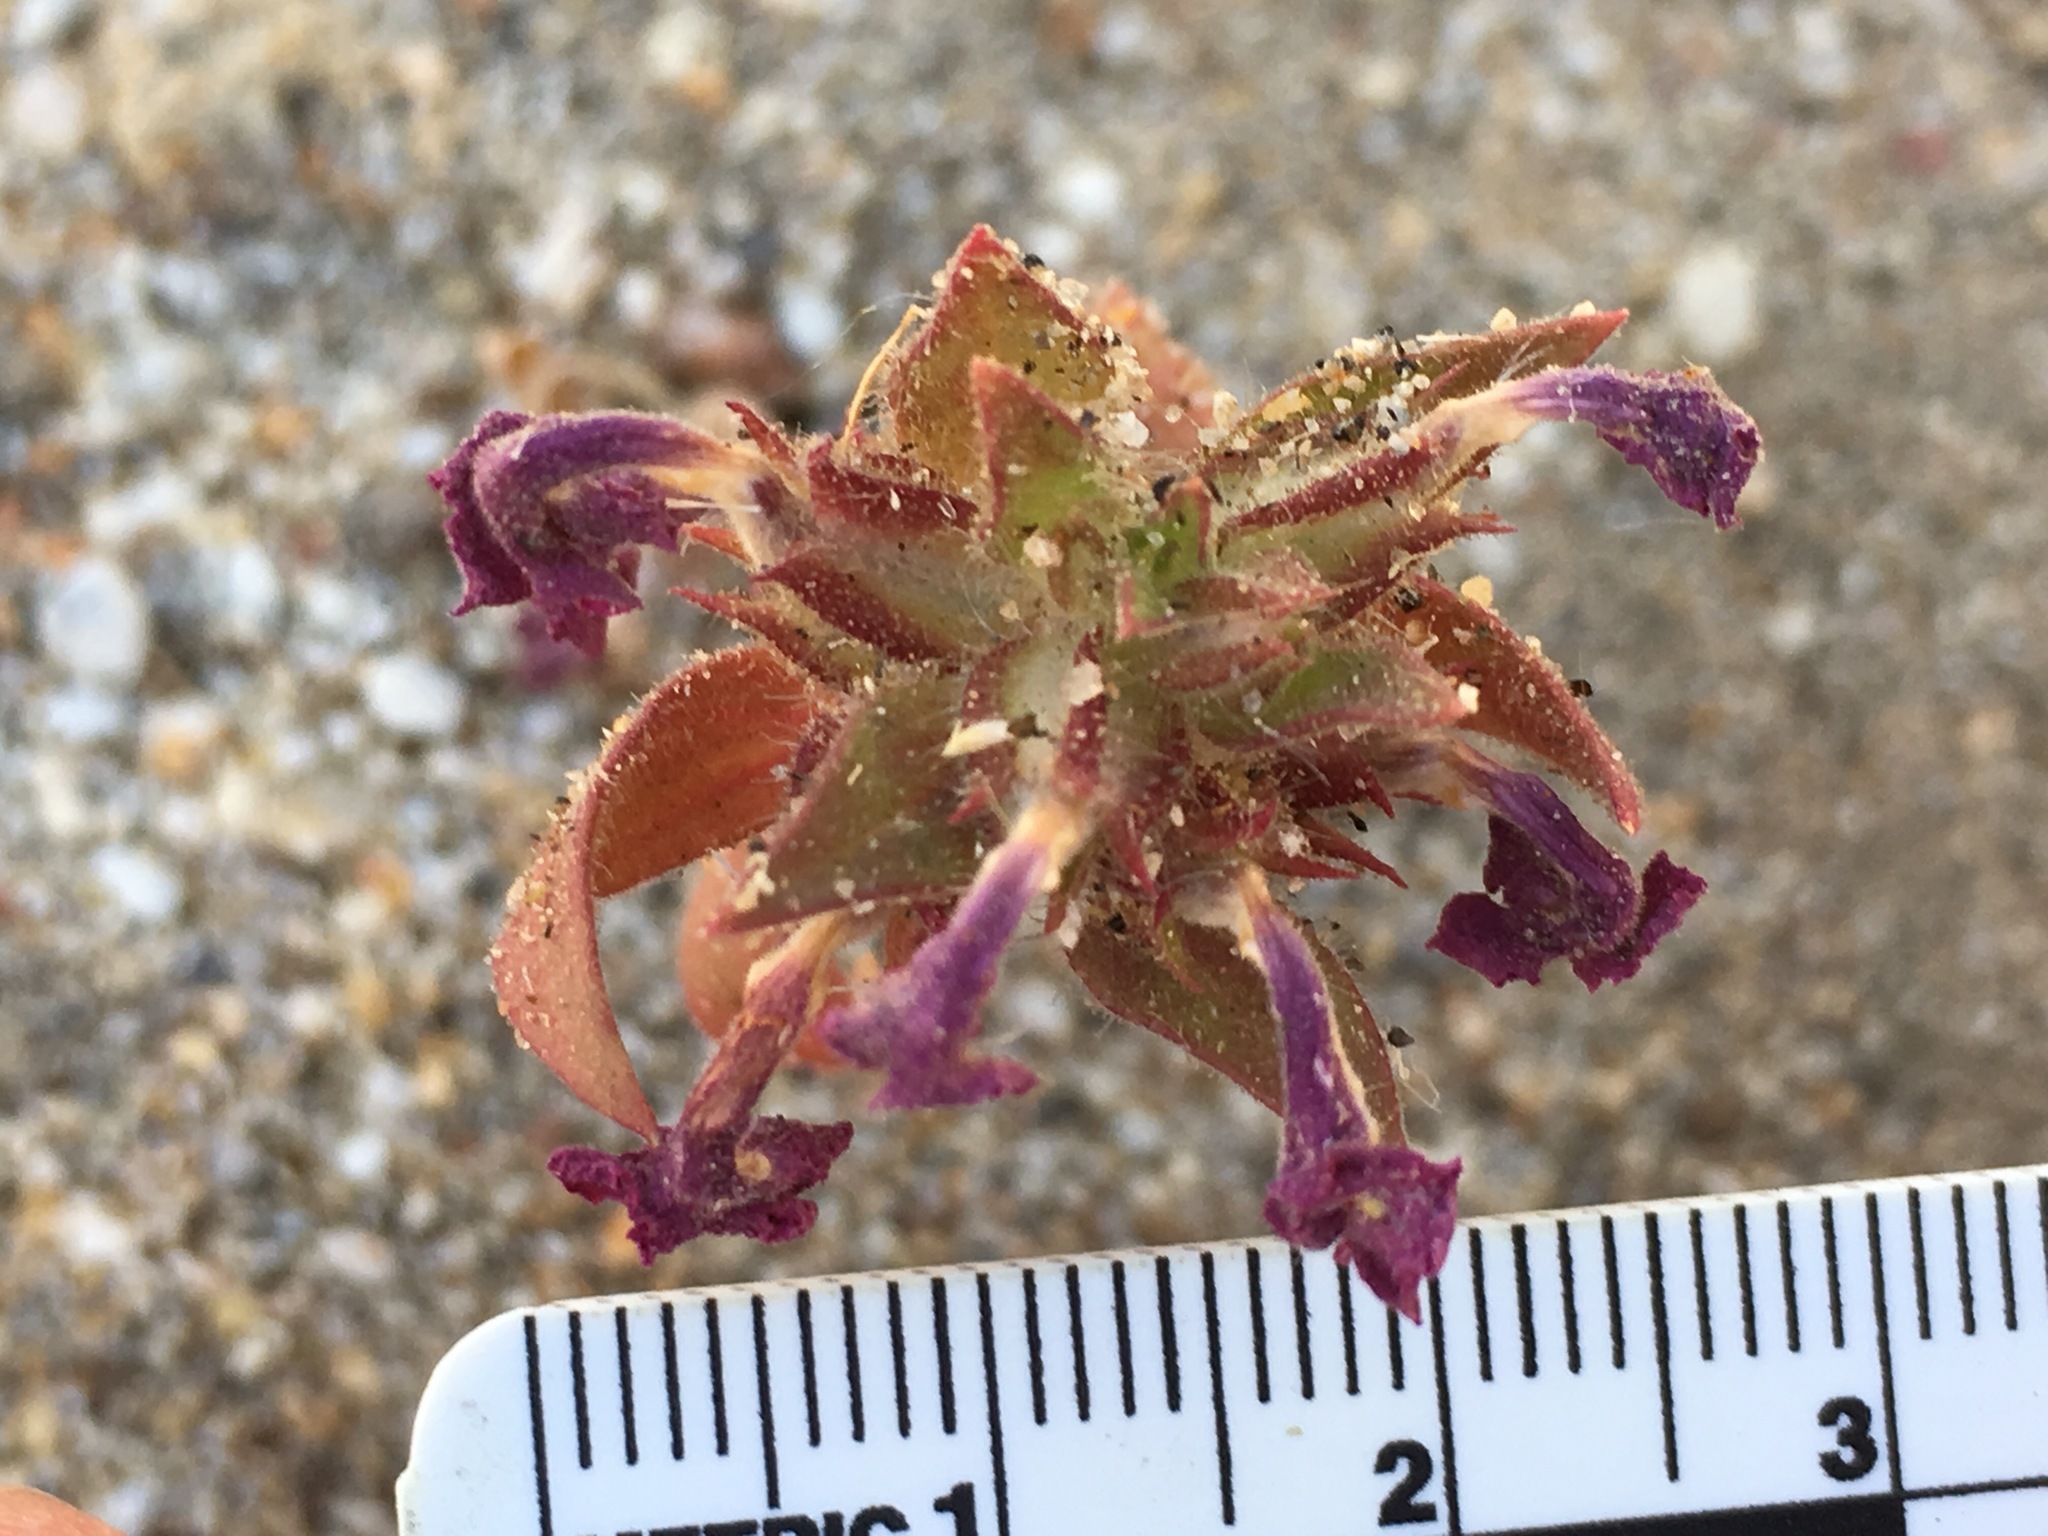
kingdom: Plantae
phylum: Tracheophyta
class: Magnoliopsida
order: Lamiales
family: Phrymaceae
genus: Diplacus
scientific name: Diplacus bigelovii
